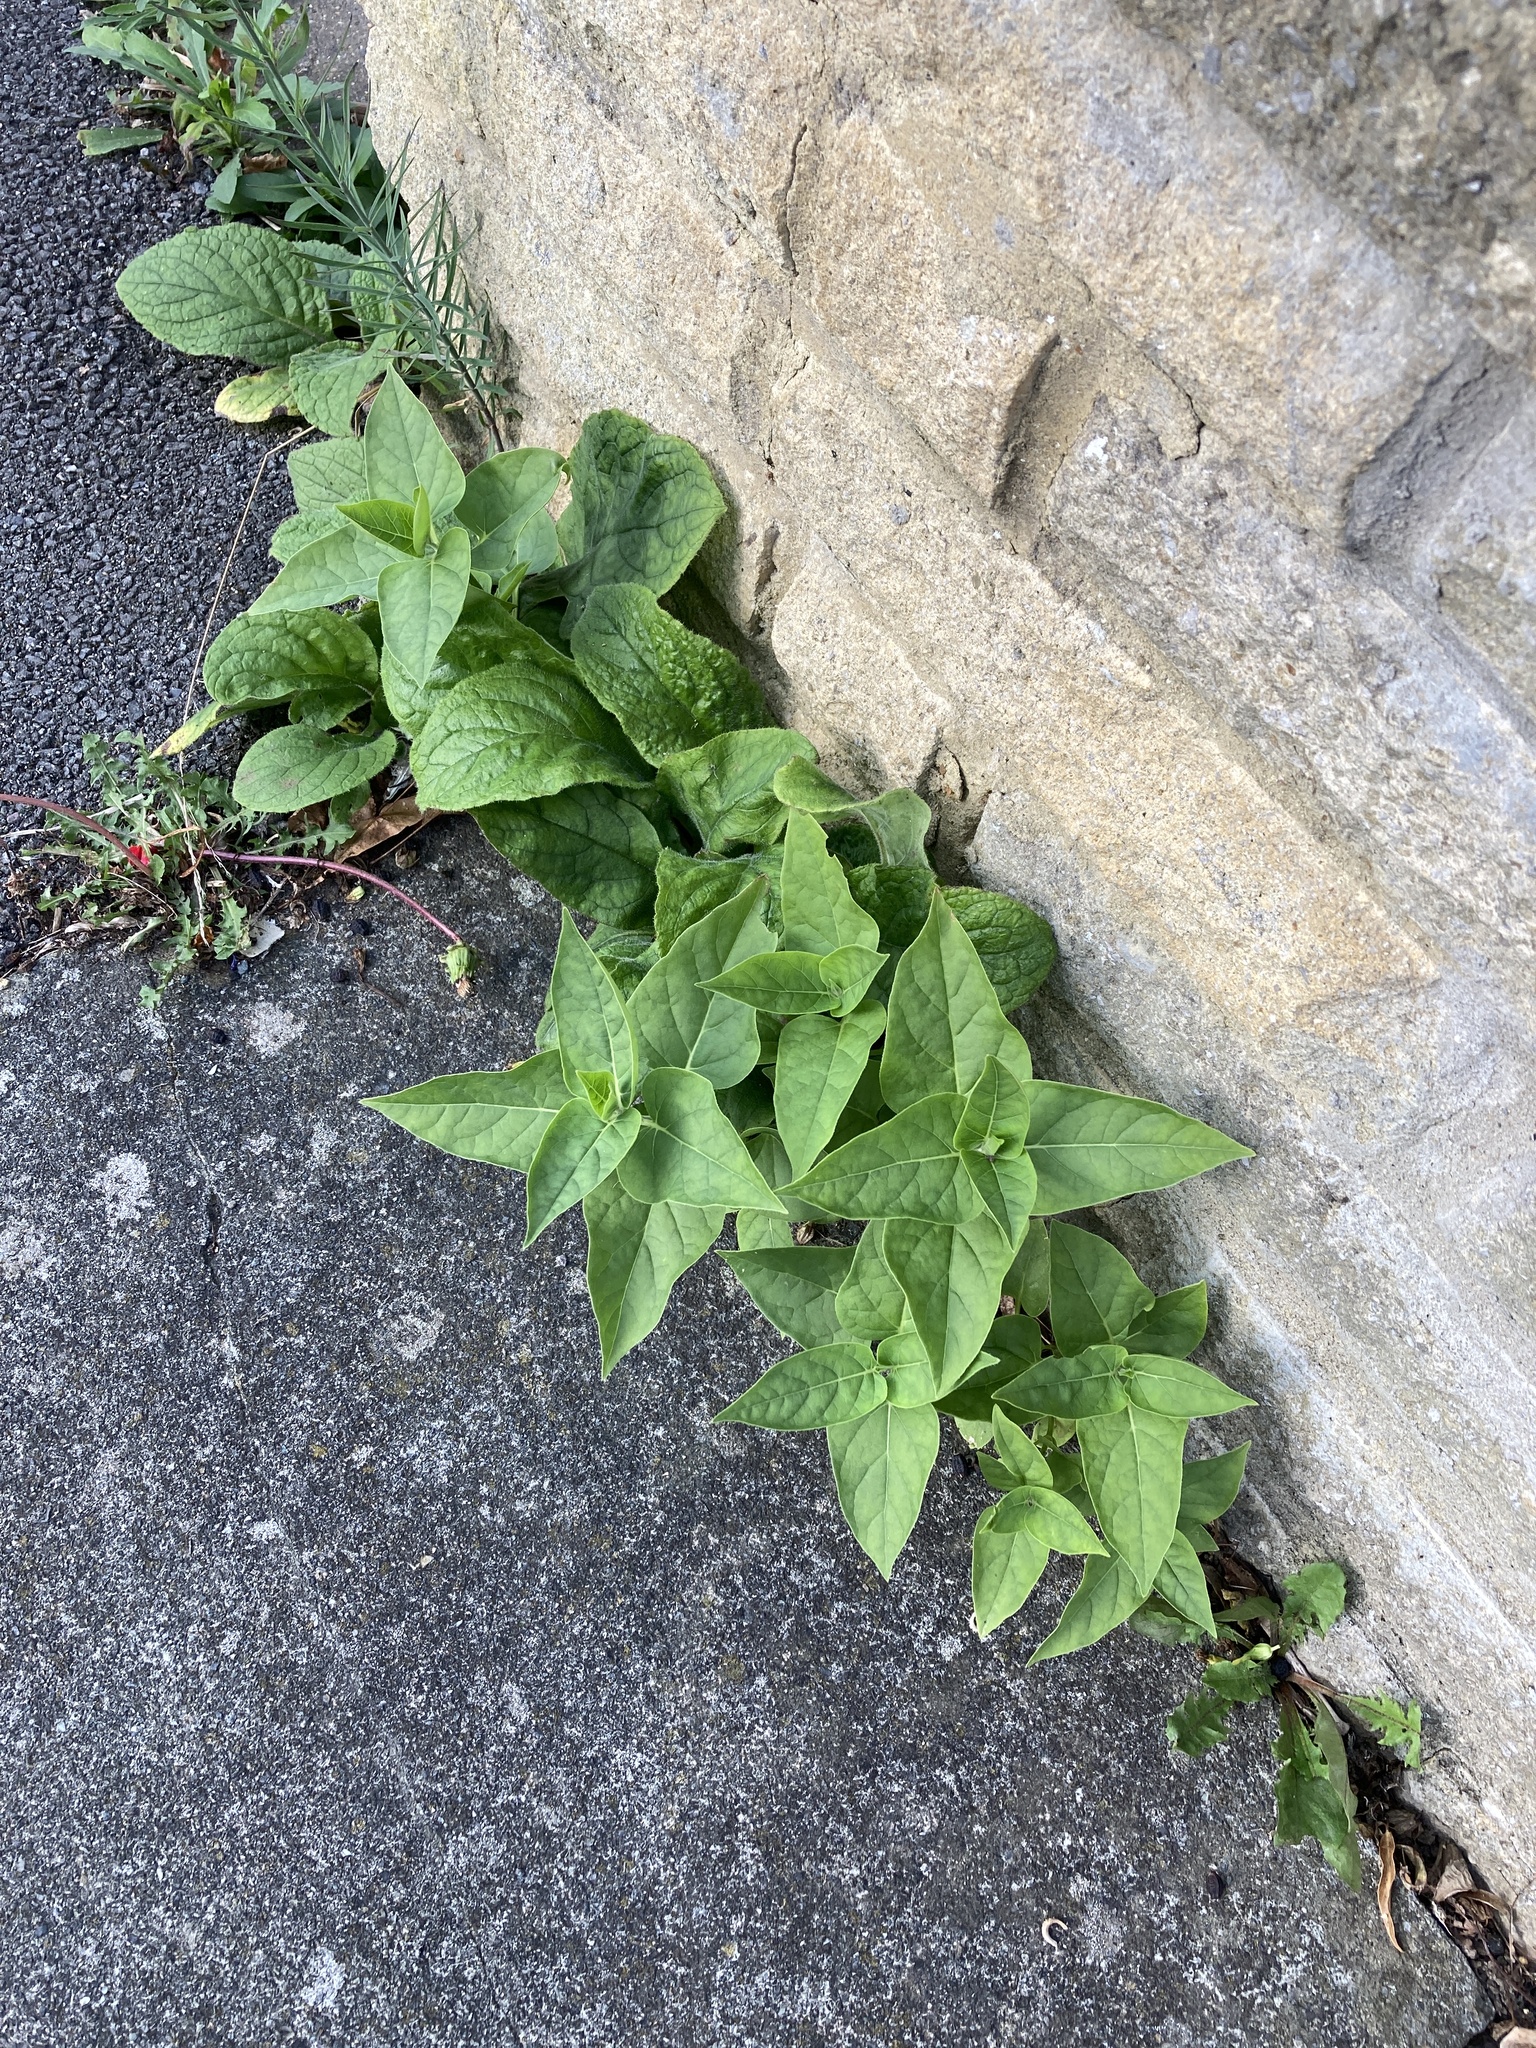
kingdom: Plantae
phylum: Tracheophyta
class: Magnoliopsida
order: Caryophyllales
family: Nyctaginaceae
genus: Mirabilis
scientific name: Mirabilis jalapa
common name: Marvel-of-peru
